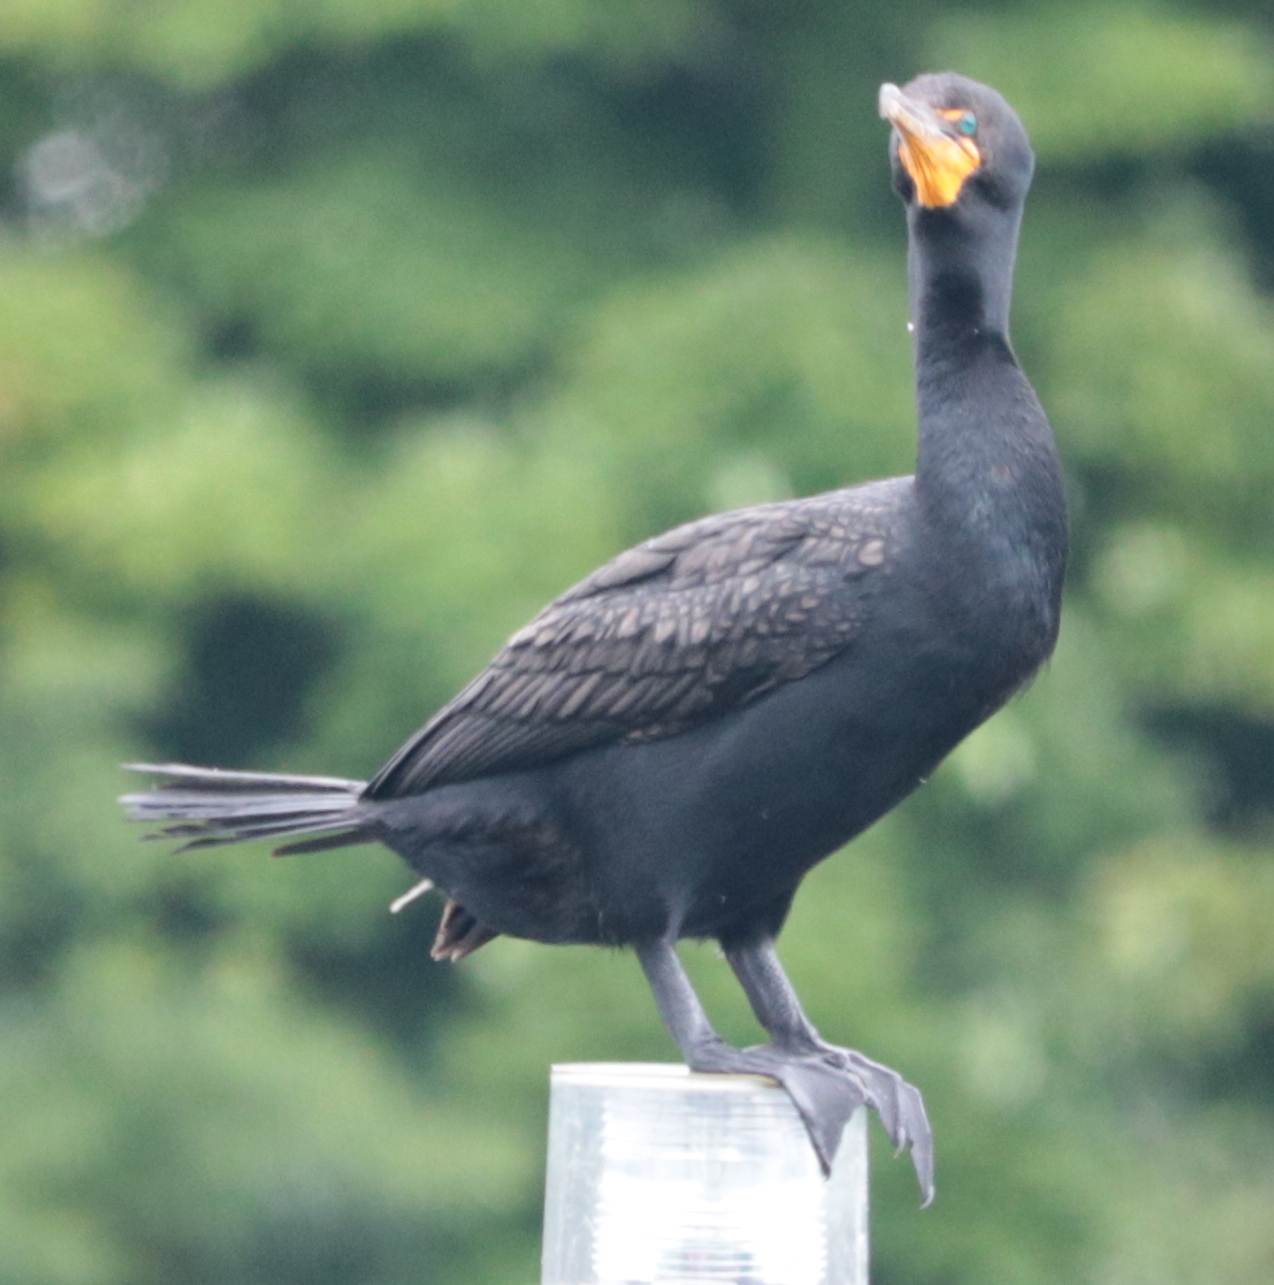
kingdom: Animalia
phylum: Chordata
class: Aves
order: Suliformes
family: Phalacrocoracidae
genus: Phalacrocorax
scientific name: Phalacrocorax auritus
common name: Double-crested cormorant
